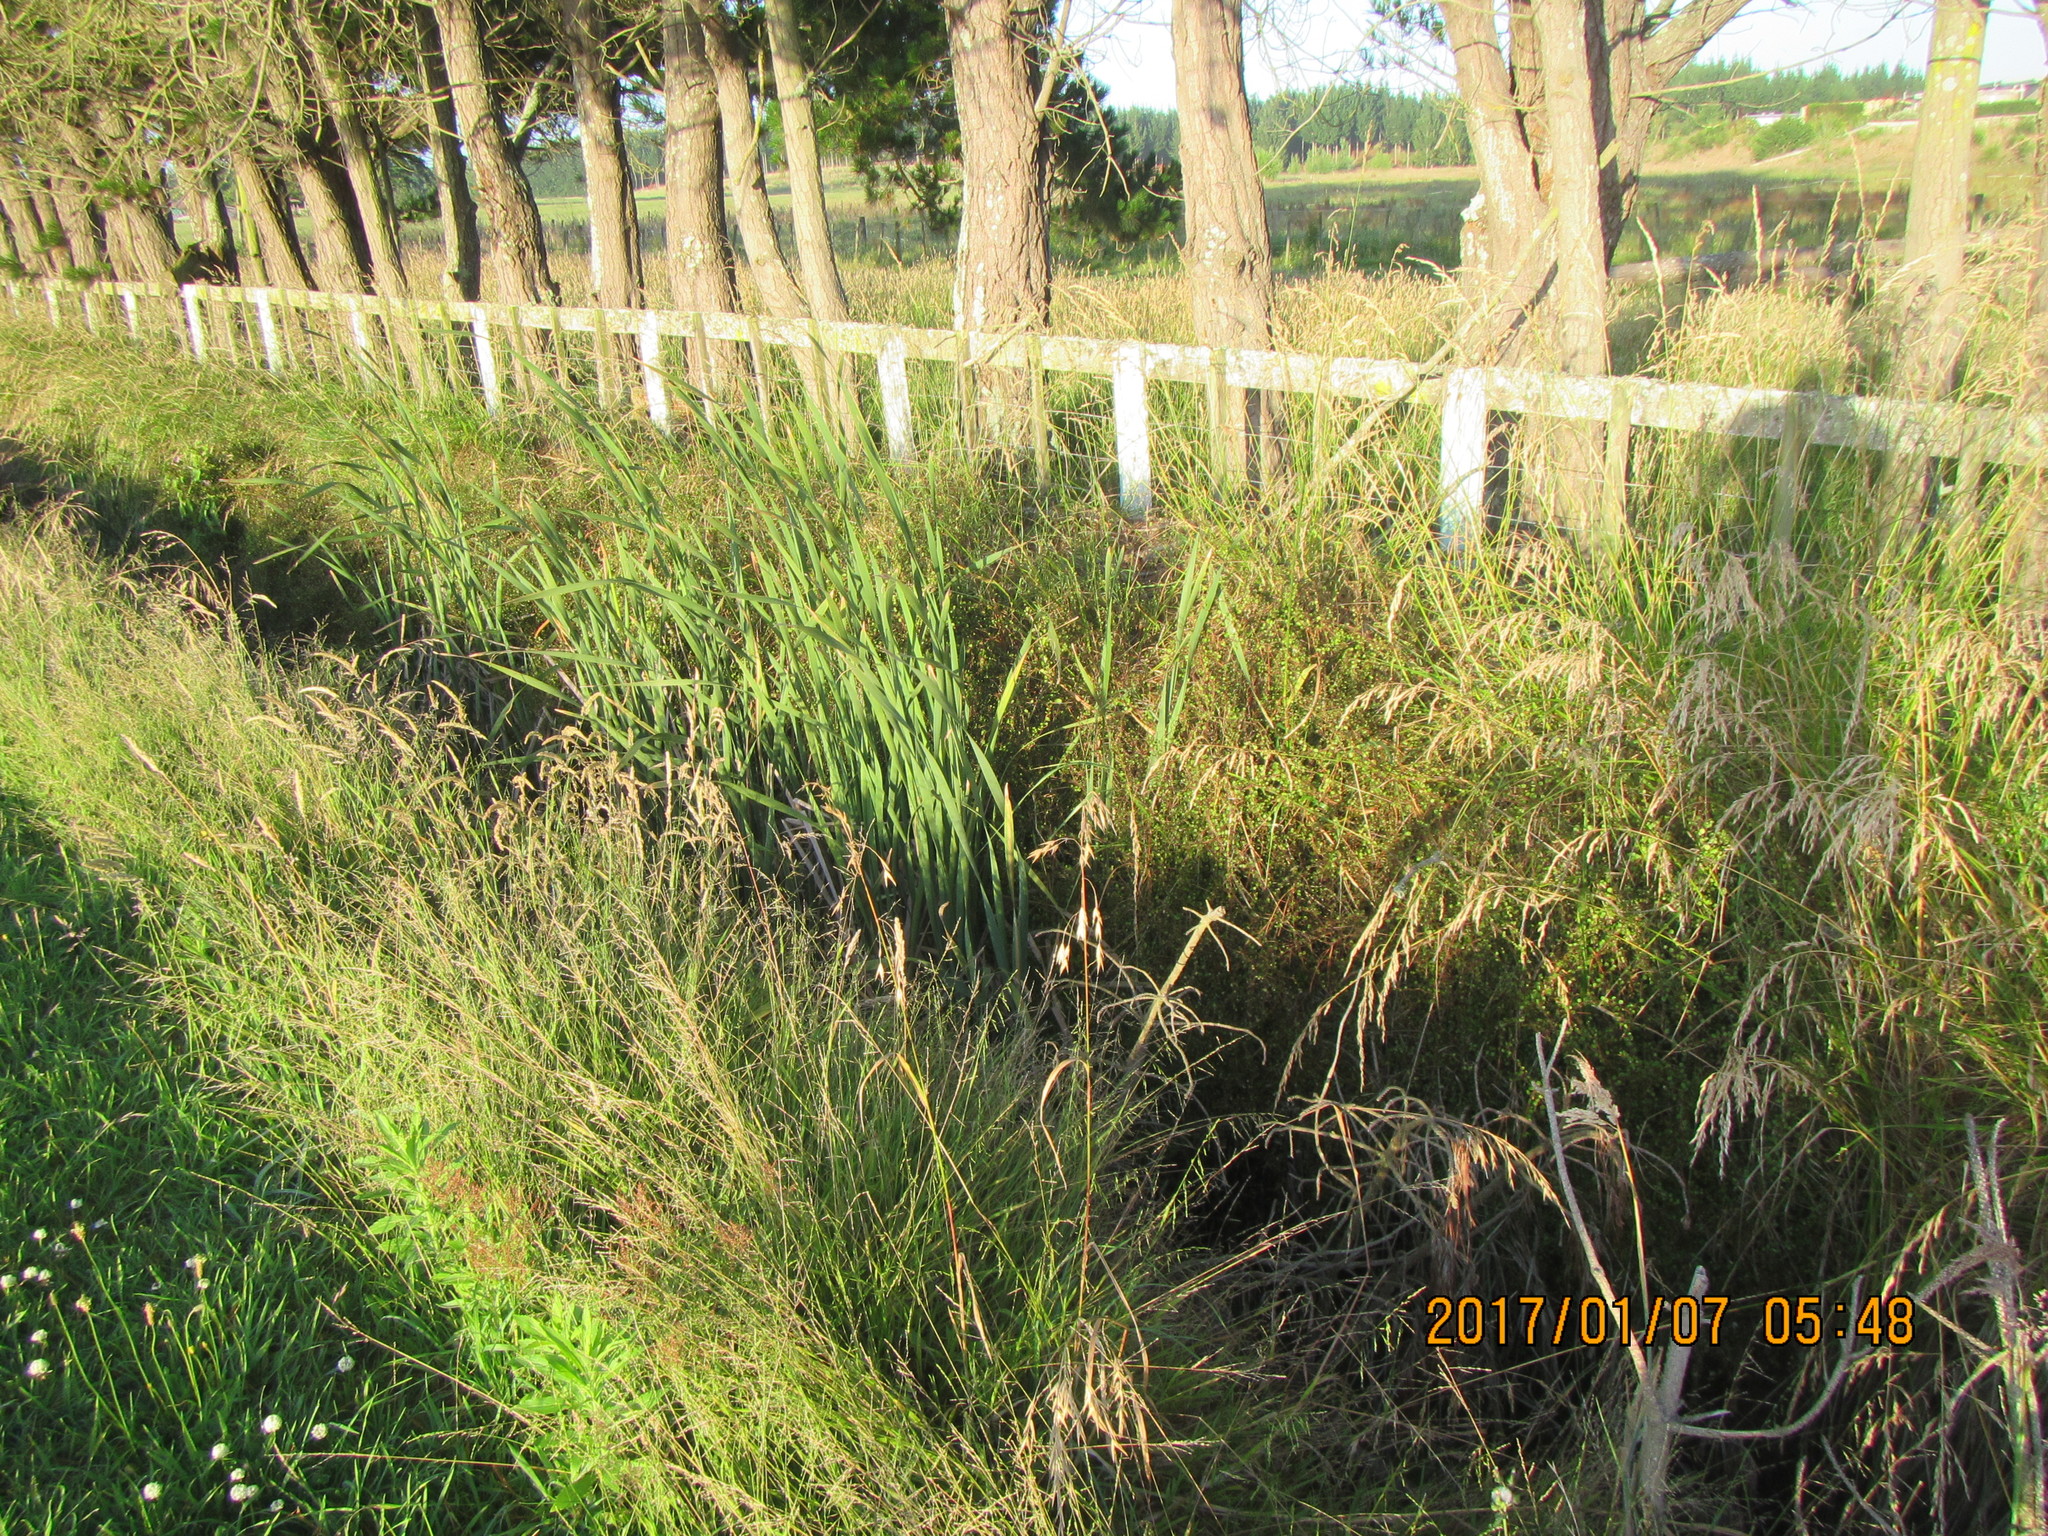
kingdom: Plantae
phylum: Tracheophyta
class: Liliopsida
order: Poales
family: Typhaceae
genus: Typha
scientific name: Typha orientalis
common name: Bullrush
